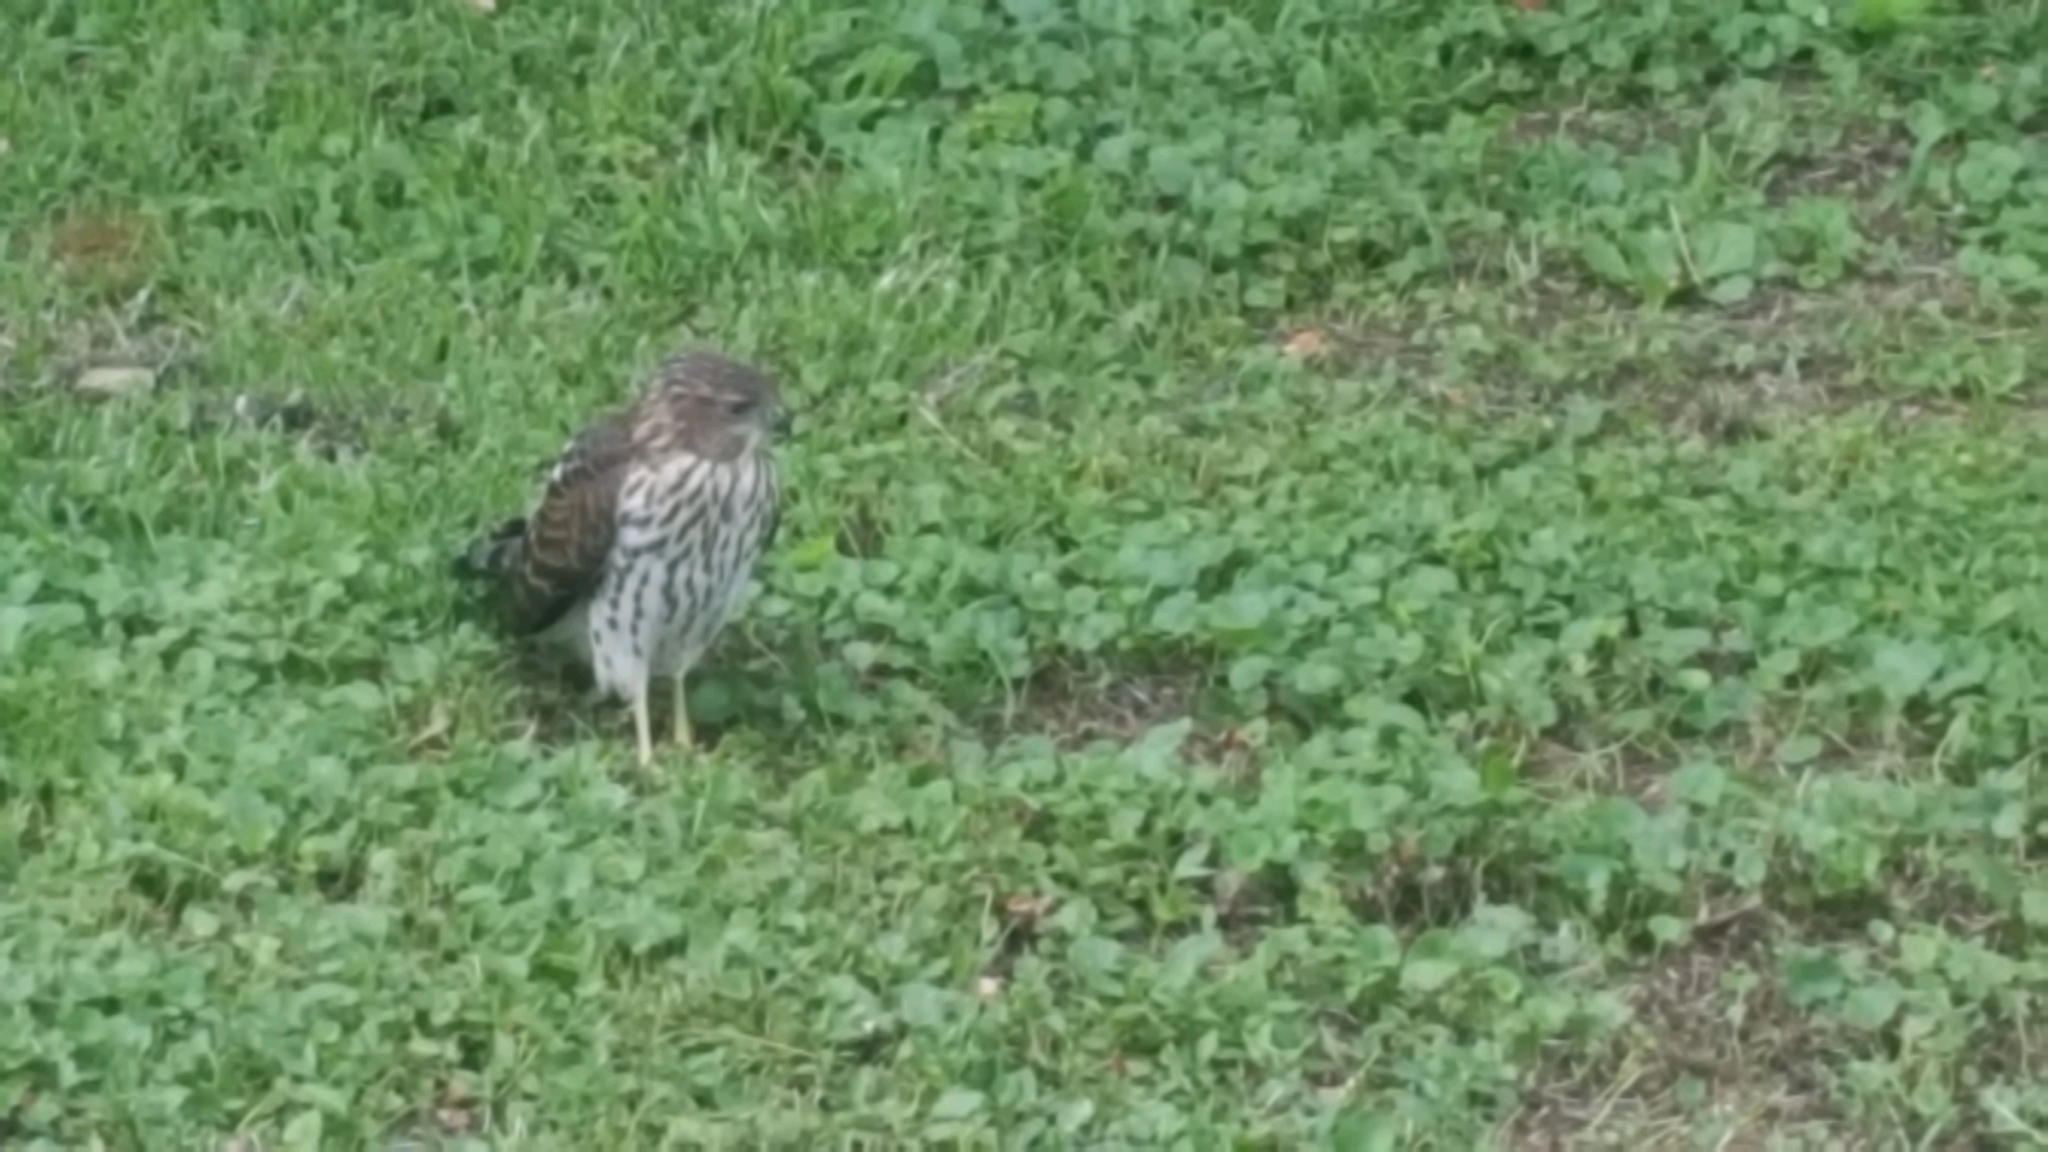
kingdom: Animalia
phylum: Chordata
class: Aves
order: Accipitriformes
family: Accipitridae
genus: Accipiter
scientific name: Accipiter cooperii
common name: Cooper's hawk
